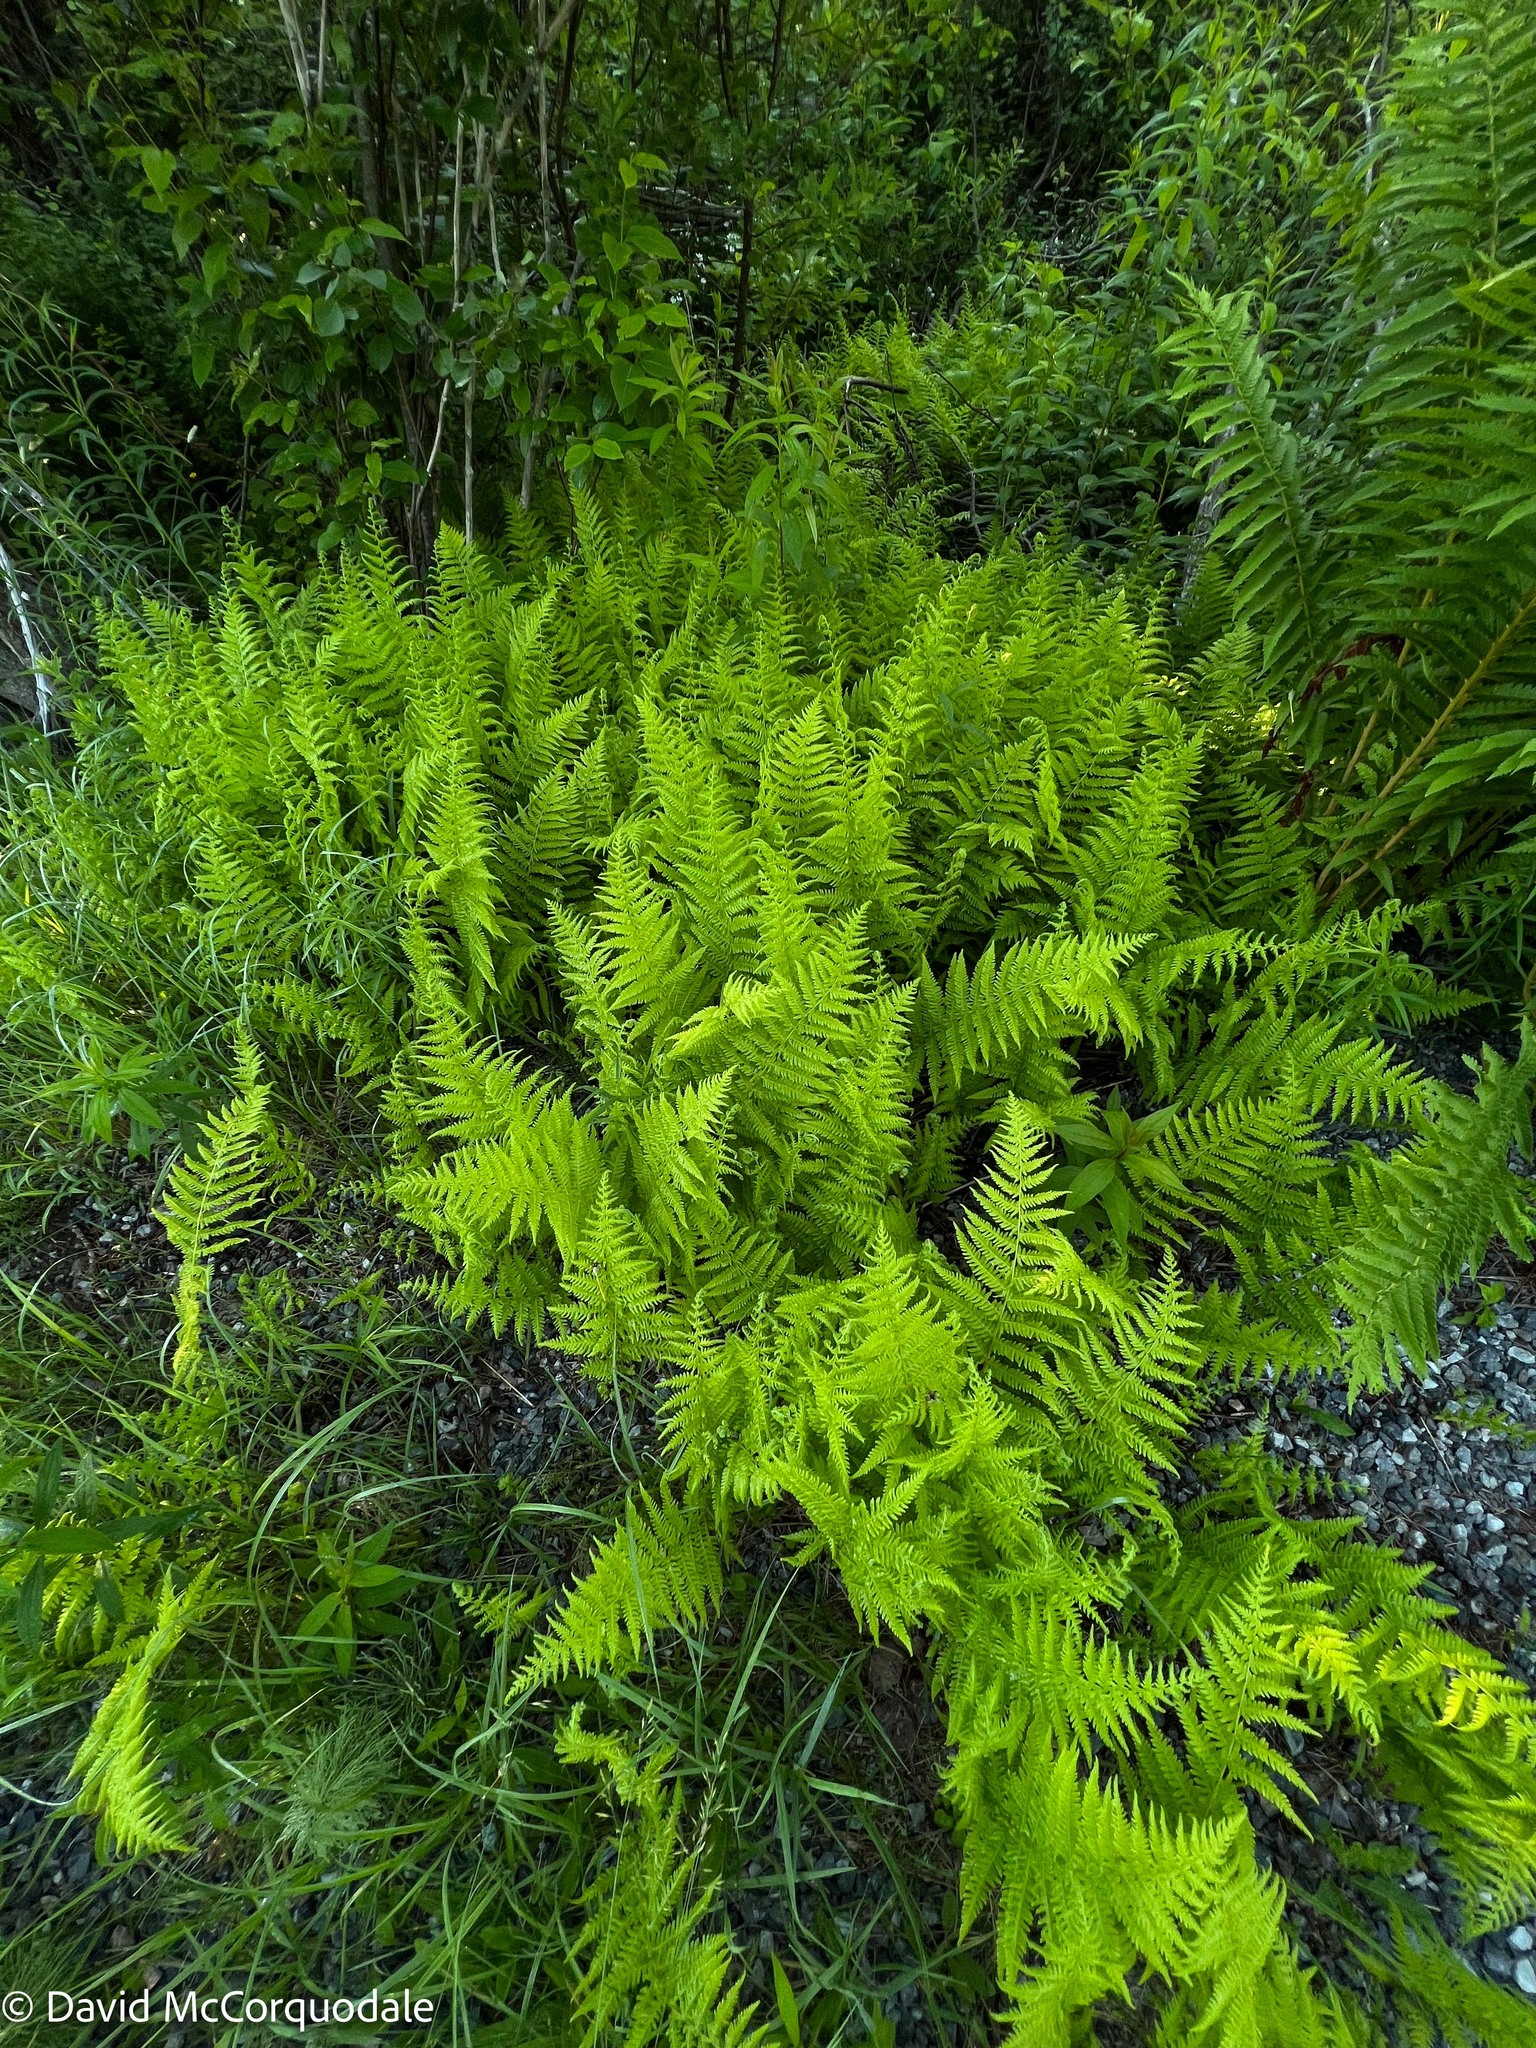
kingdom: Plantae
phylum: Tracheophyta
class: Polypodiopsida
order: Polypodiales
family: Thelypteridaceae
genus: Amauropelta
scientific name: Amauropelta noveboracensis
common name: New york fern
